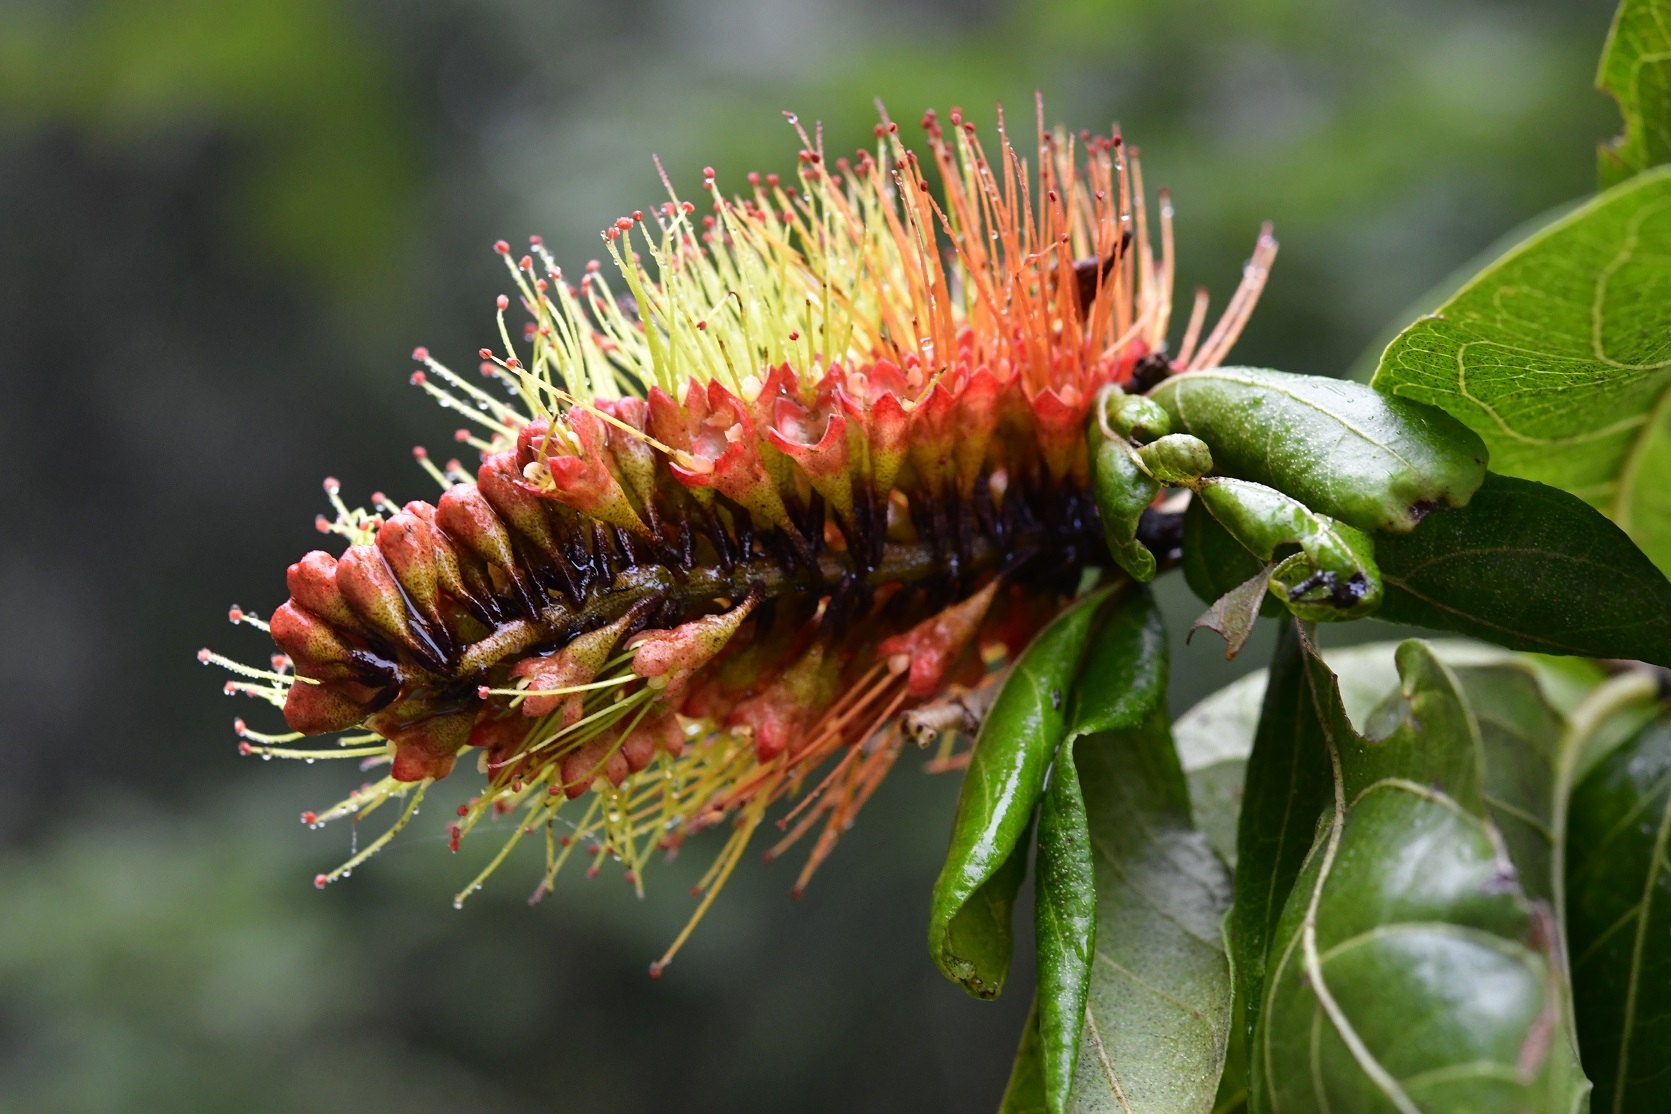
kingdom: Plantae
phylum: Tracheophyta
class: Magnoliopsida
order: Myrtales
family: Combretaceae
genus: Combretum
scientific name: Combretum farinosum
